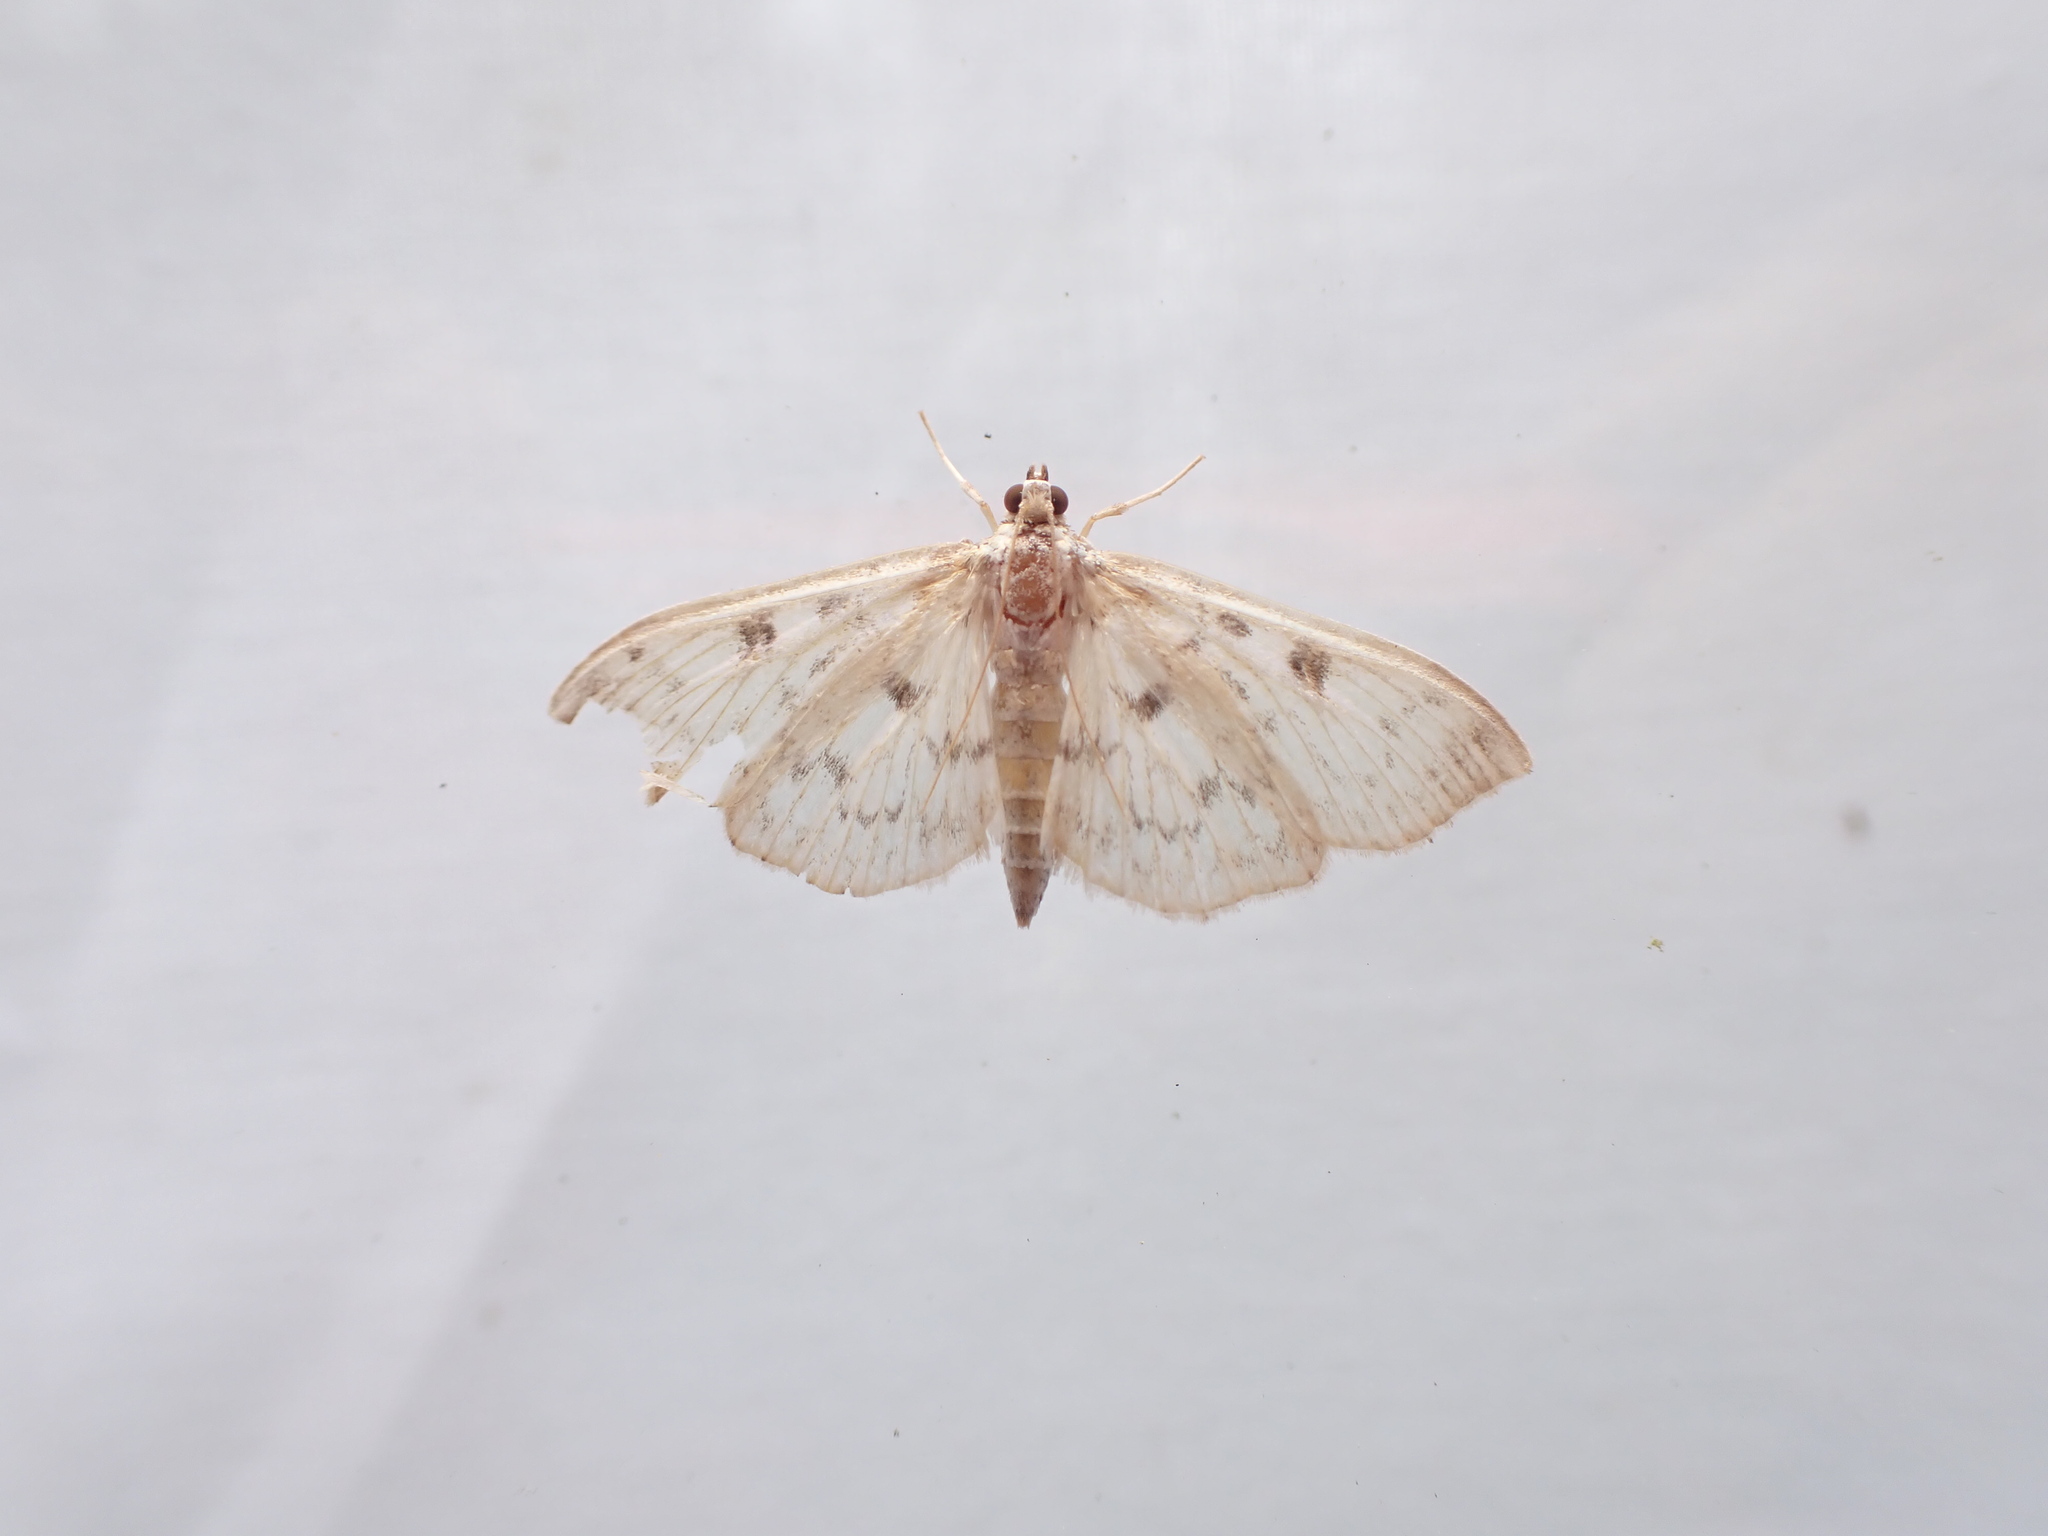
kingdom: Animalia
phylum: Arthropoda
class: Insecta
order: Lepidoptera
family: Crambidae
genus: Herpetogramma
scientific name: Herpetogramma aquilonalis
